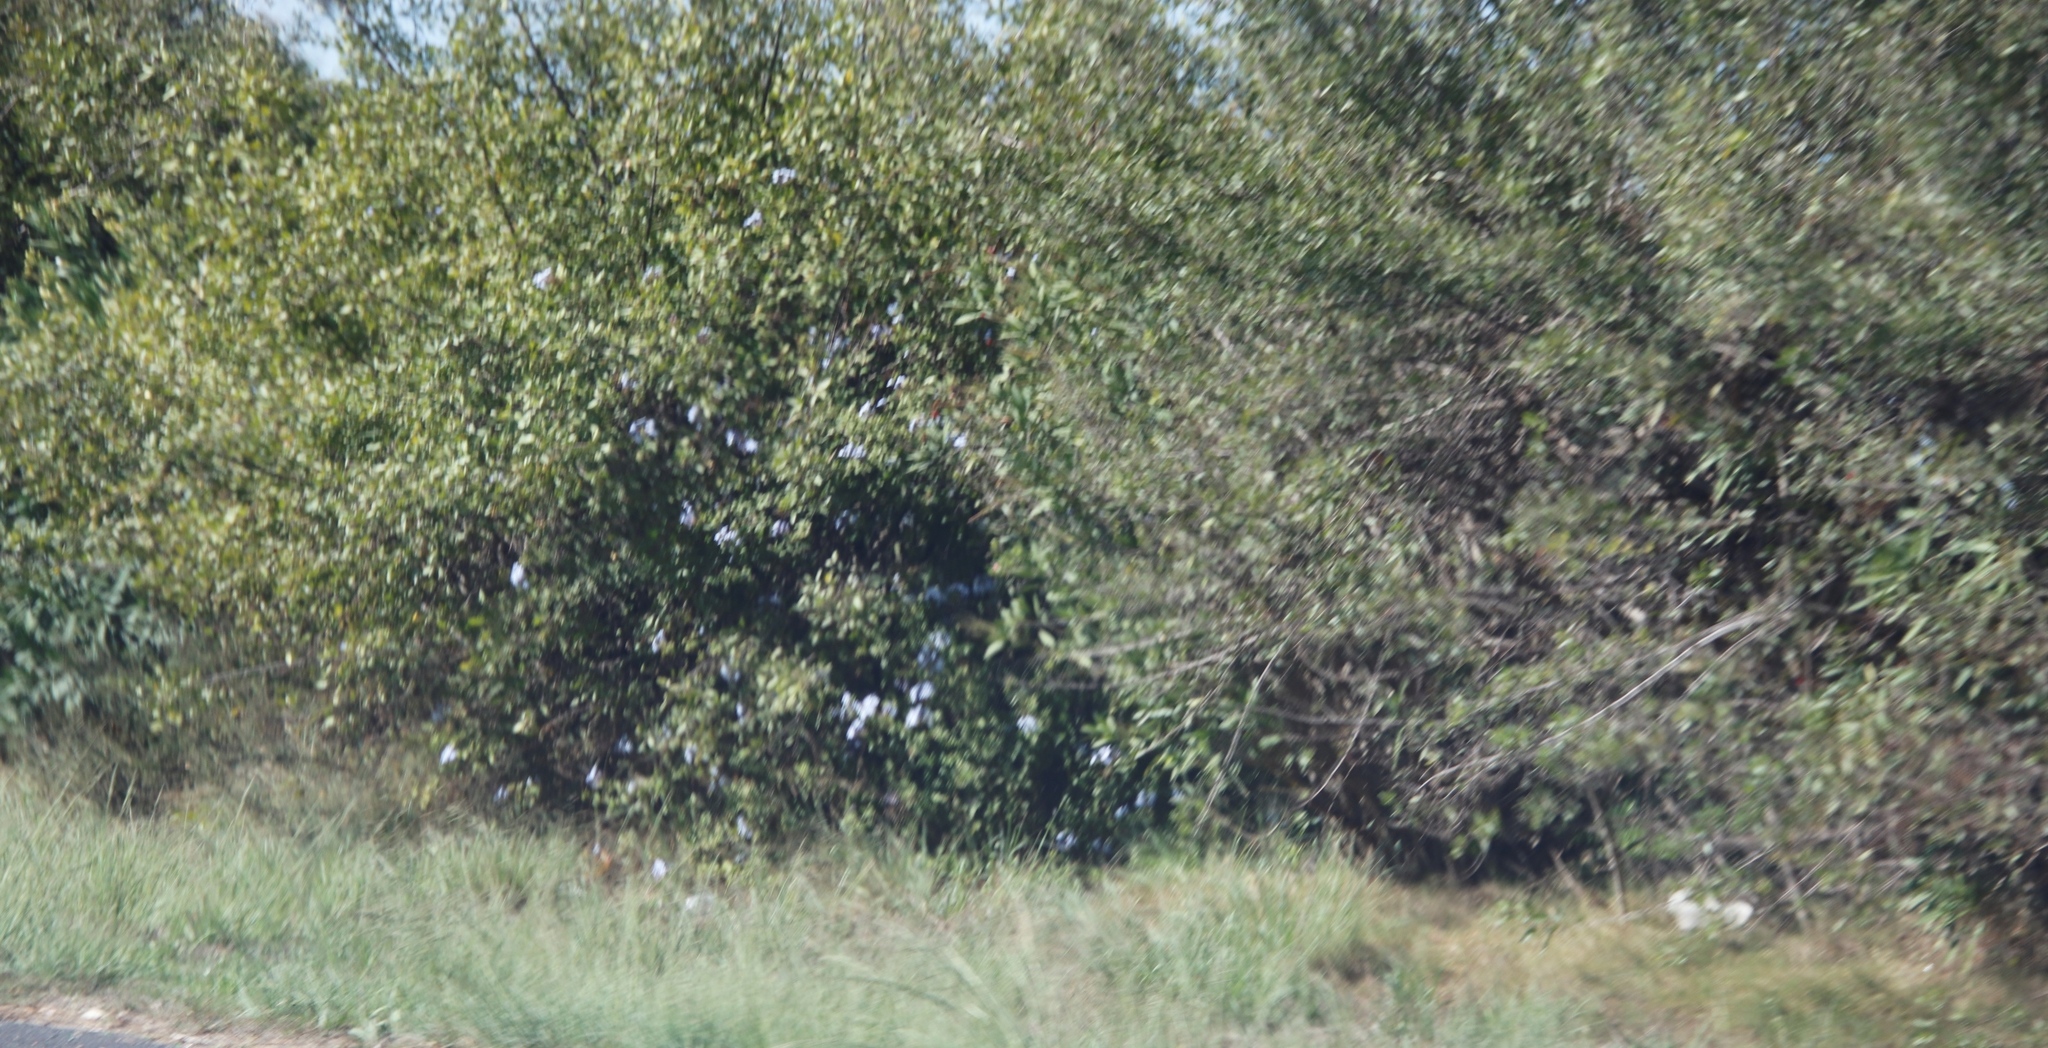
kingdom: Plantae
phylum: Tracheophyta
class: Magnoliopsida
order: Caryophyllales
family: Plumbaginaceae
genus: Plumbago
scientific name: Plumbago auriculata
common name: Cape leadwort
